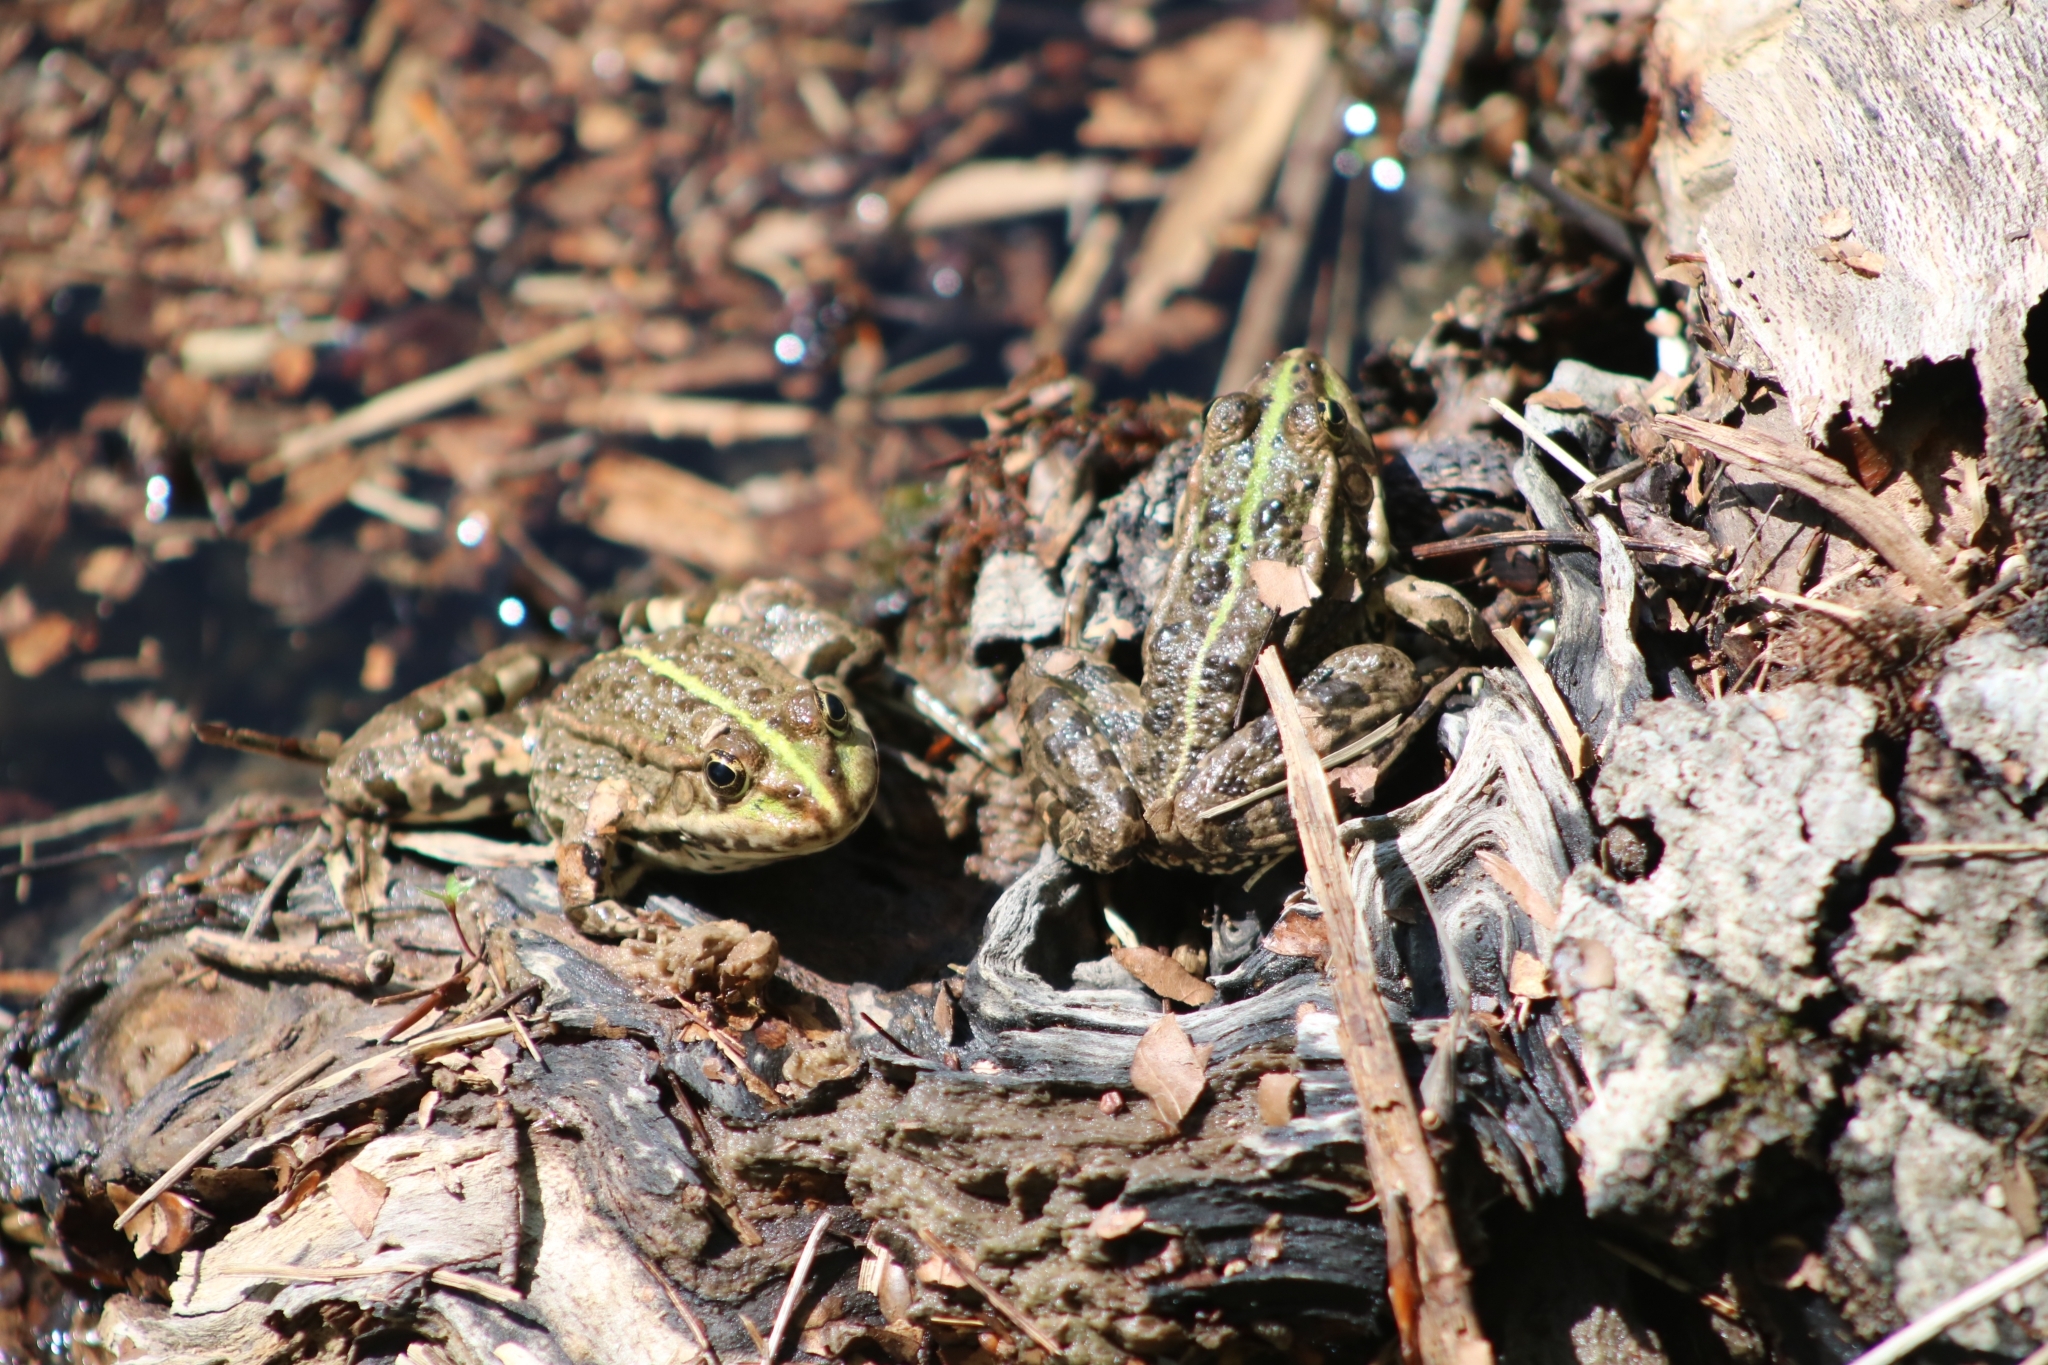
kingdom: Animalia
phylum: Chordata
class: Amphibia
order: Anura
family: Ranidae
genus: Pelophylax
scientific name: Pelophylax ridibundus
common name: Marsh frog
